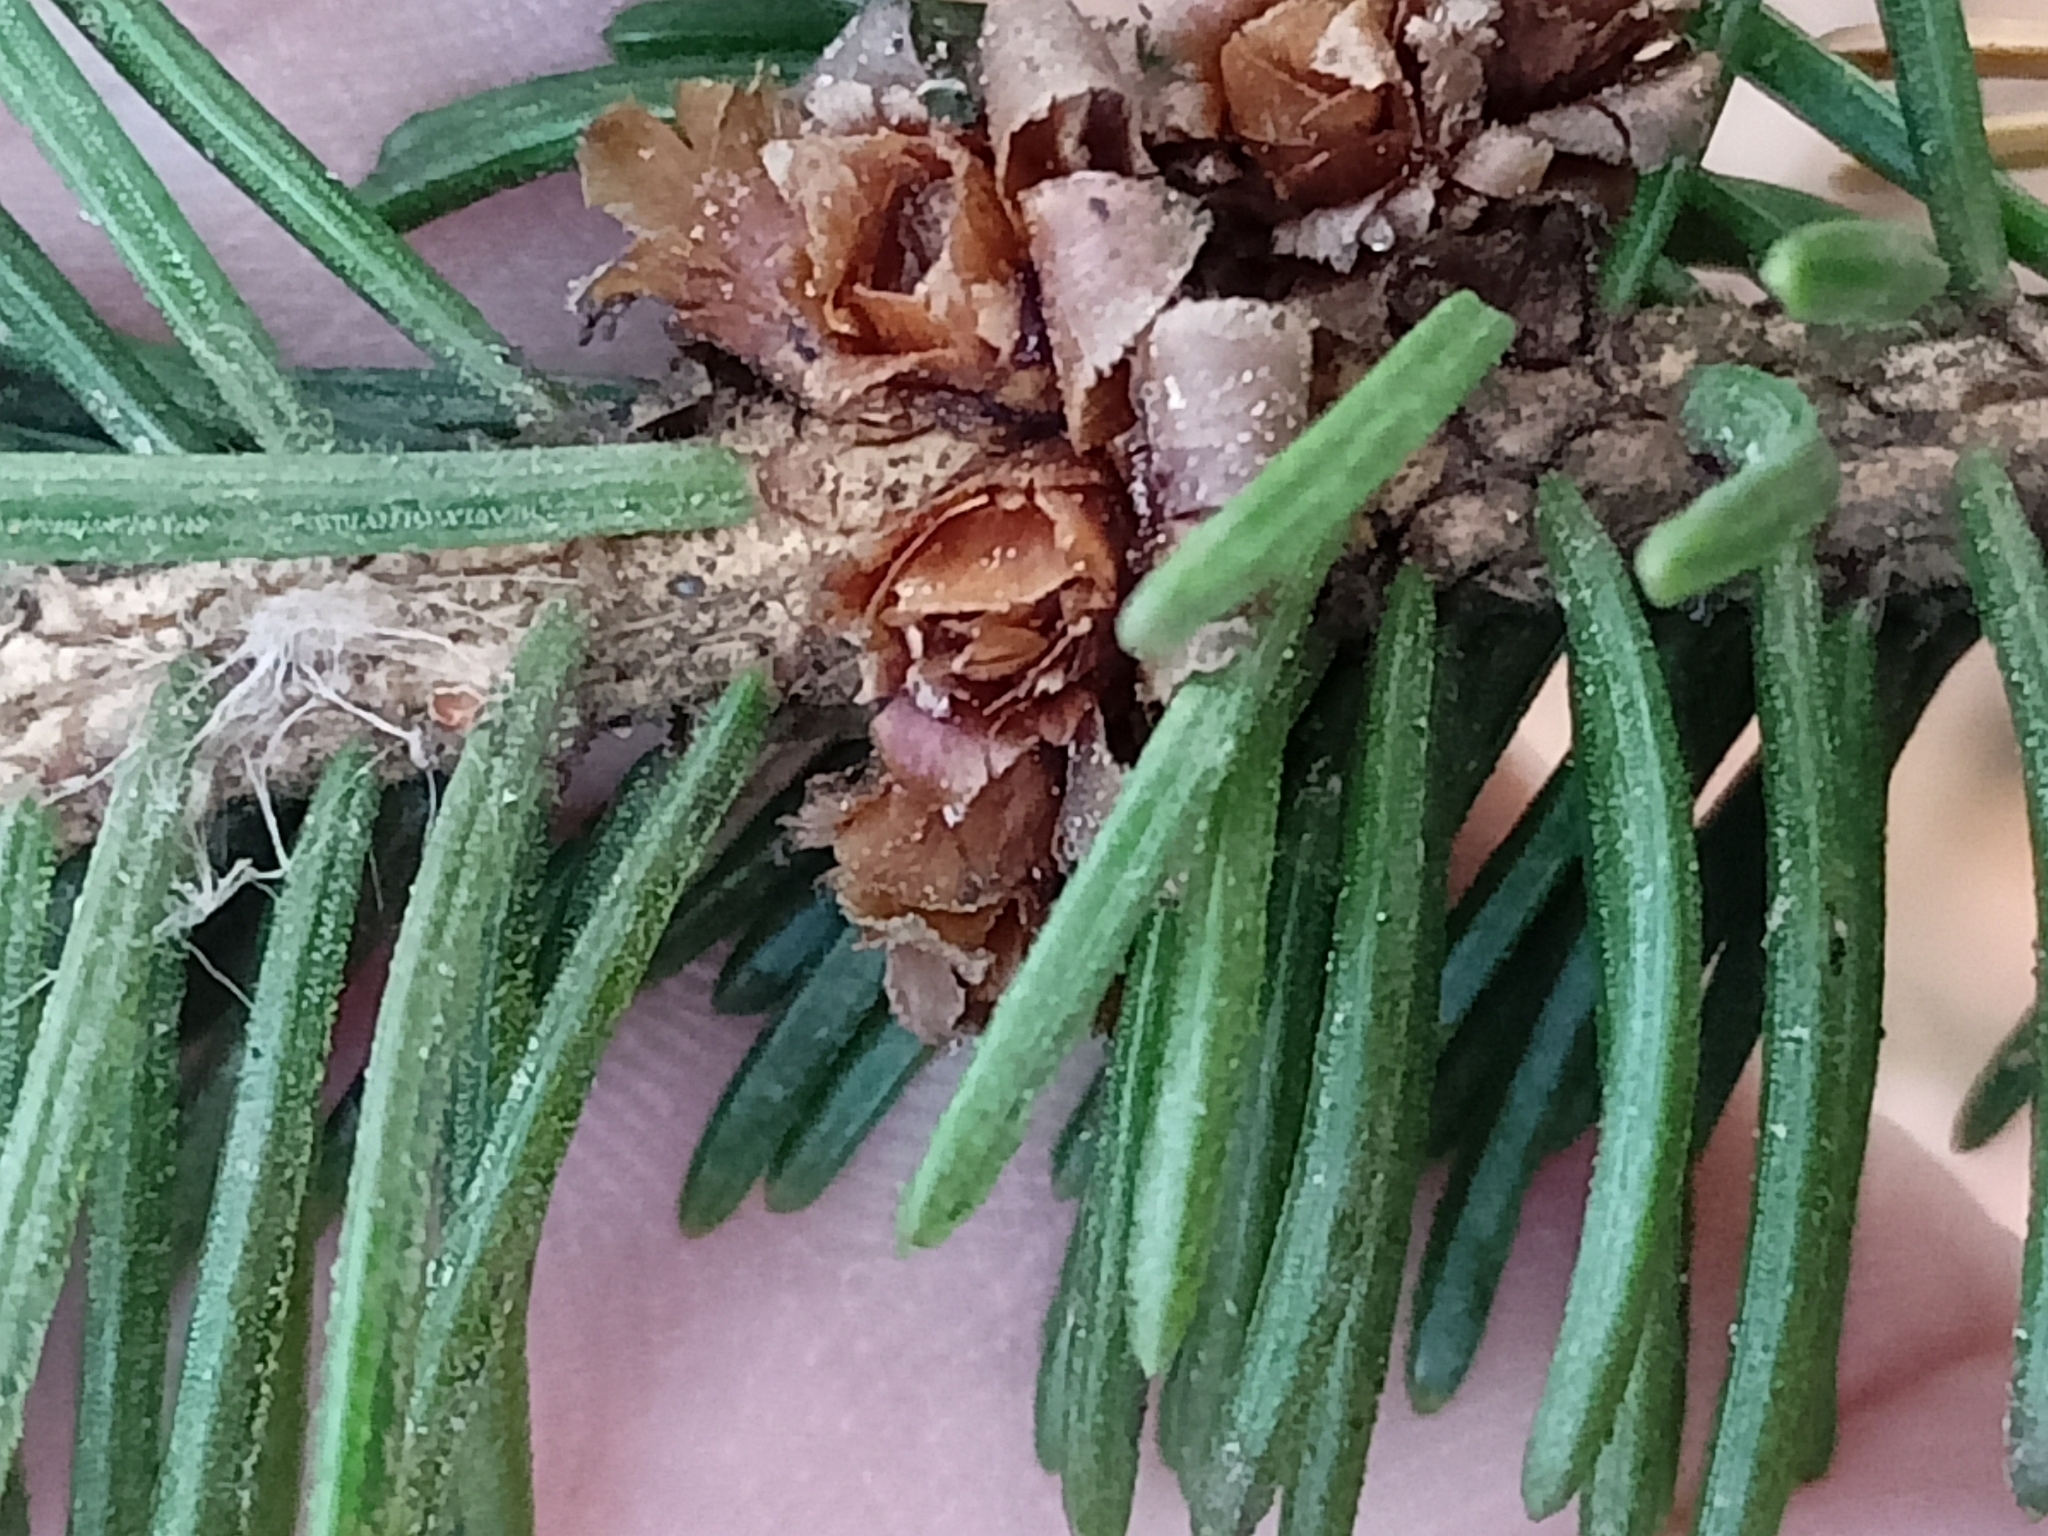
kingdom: Plantae
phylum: Tracheophyta
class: Pinopsida
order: Pinales
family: Pinaceae
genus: Picea
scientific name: Picea abies
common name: Norway spruce
